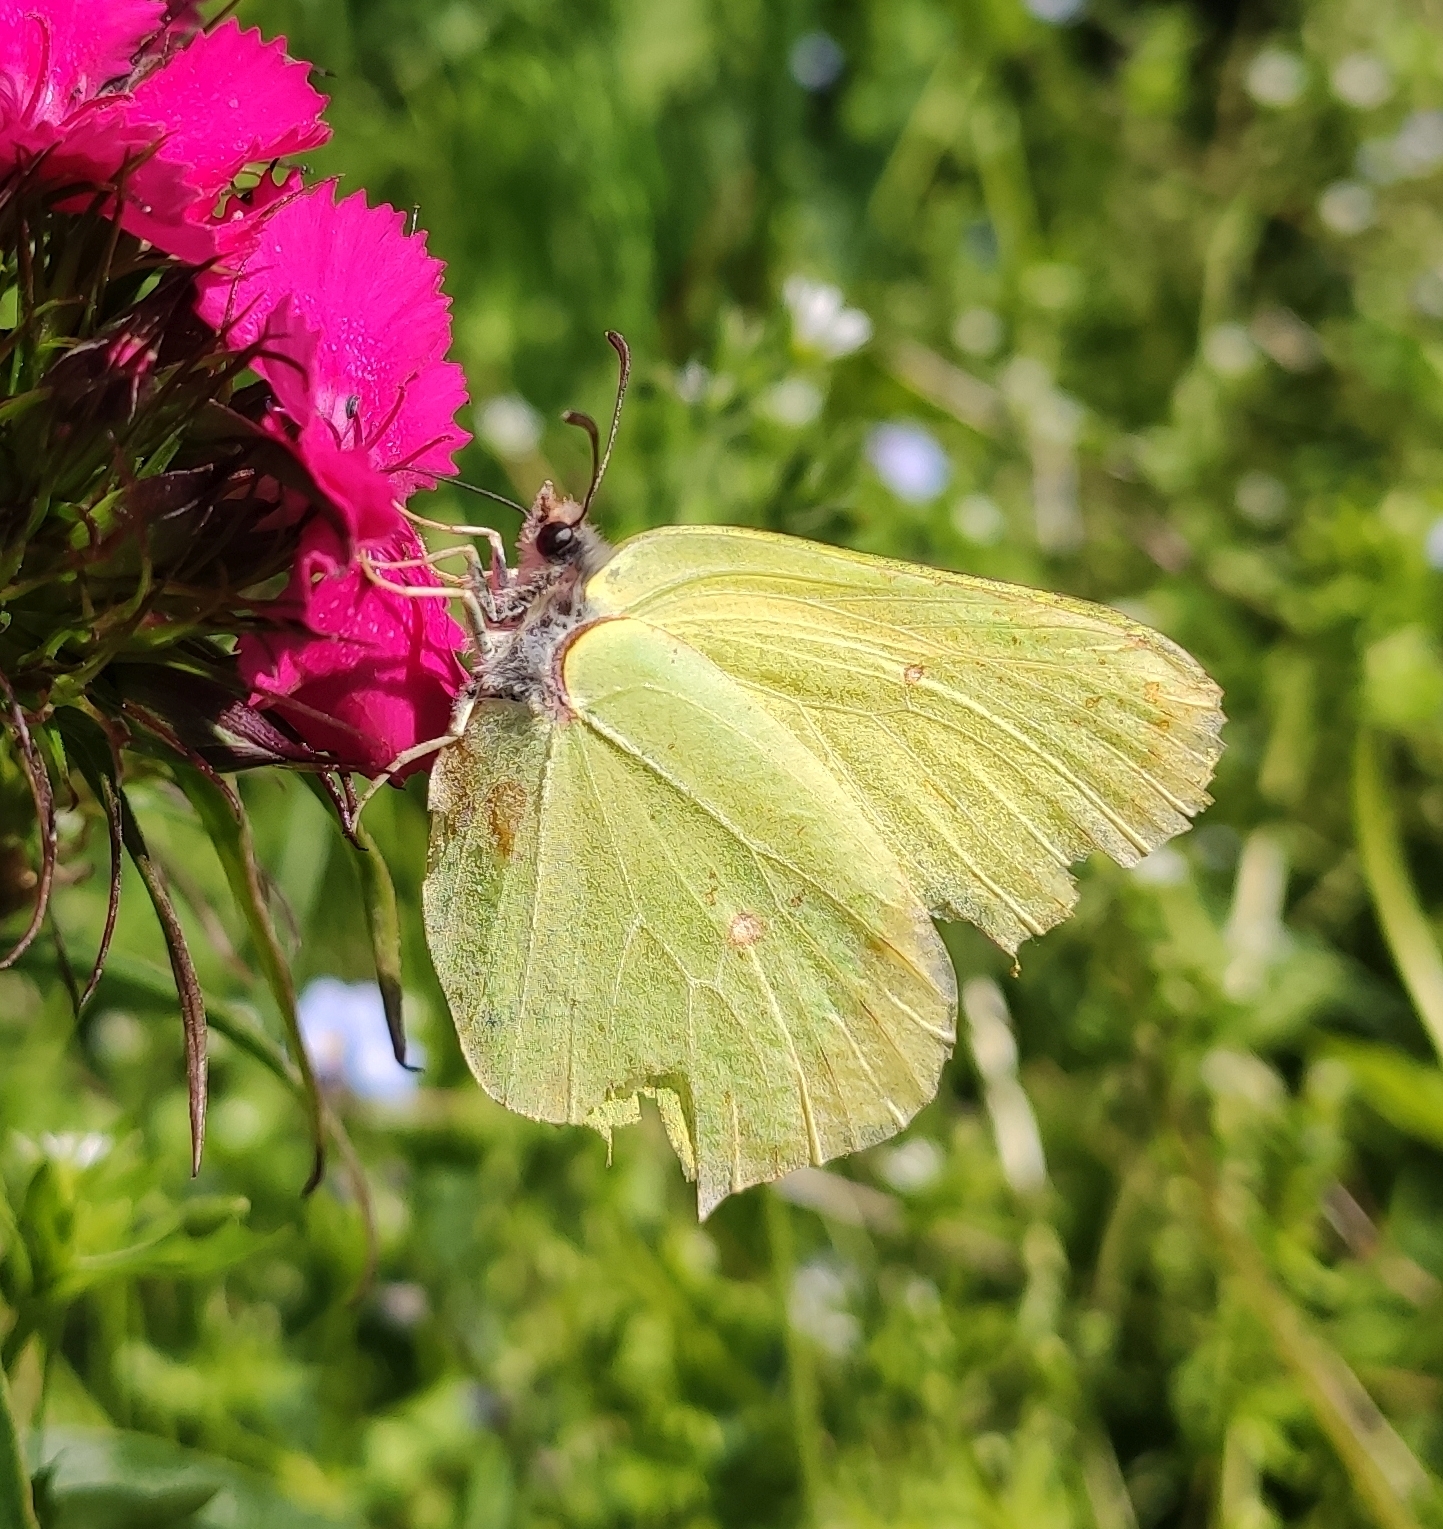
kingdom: Animalia
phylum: Arthropoda
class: Insecta
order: Lepidoptera
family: Pieridae
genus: Gonepteryx
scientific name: Gonepteryx rhamni
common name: Brimstone
